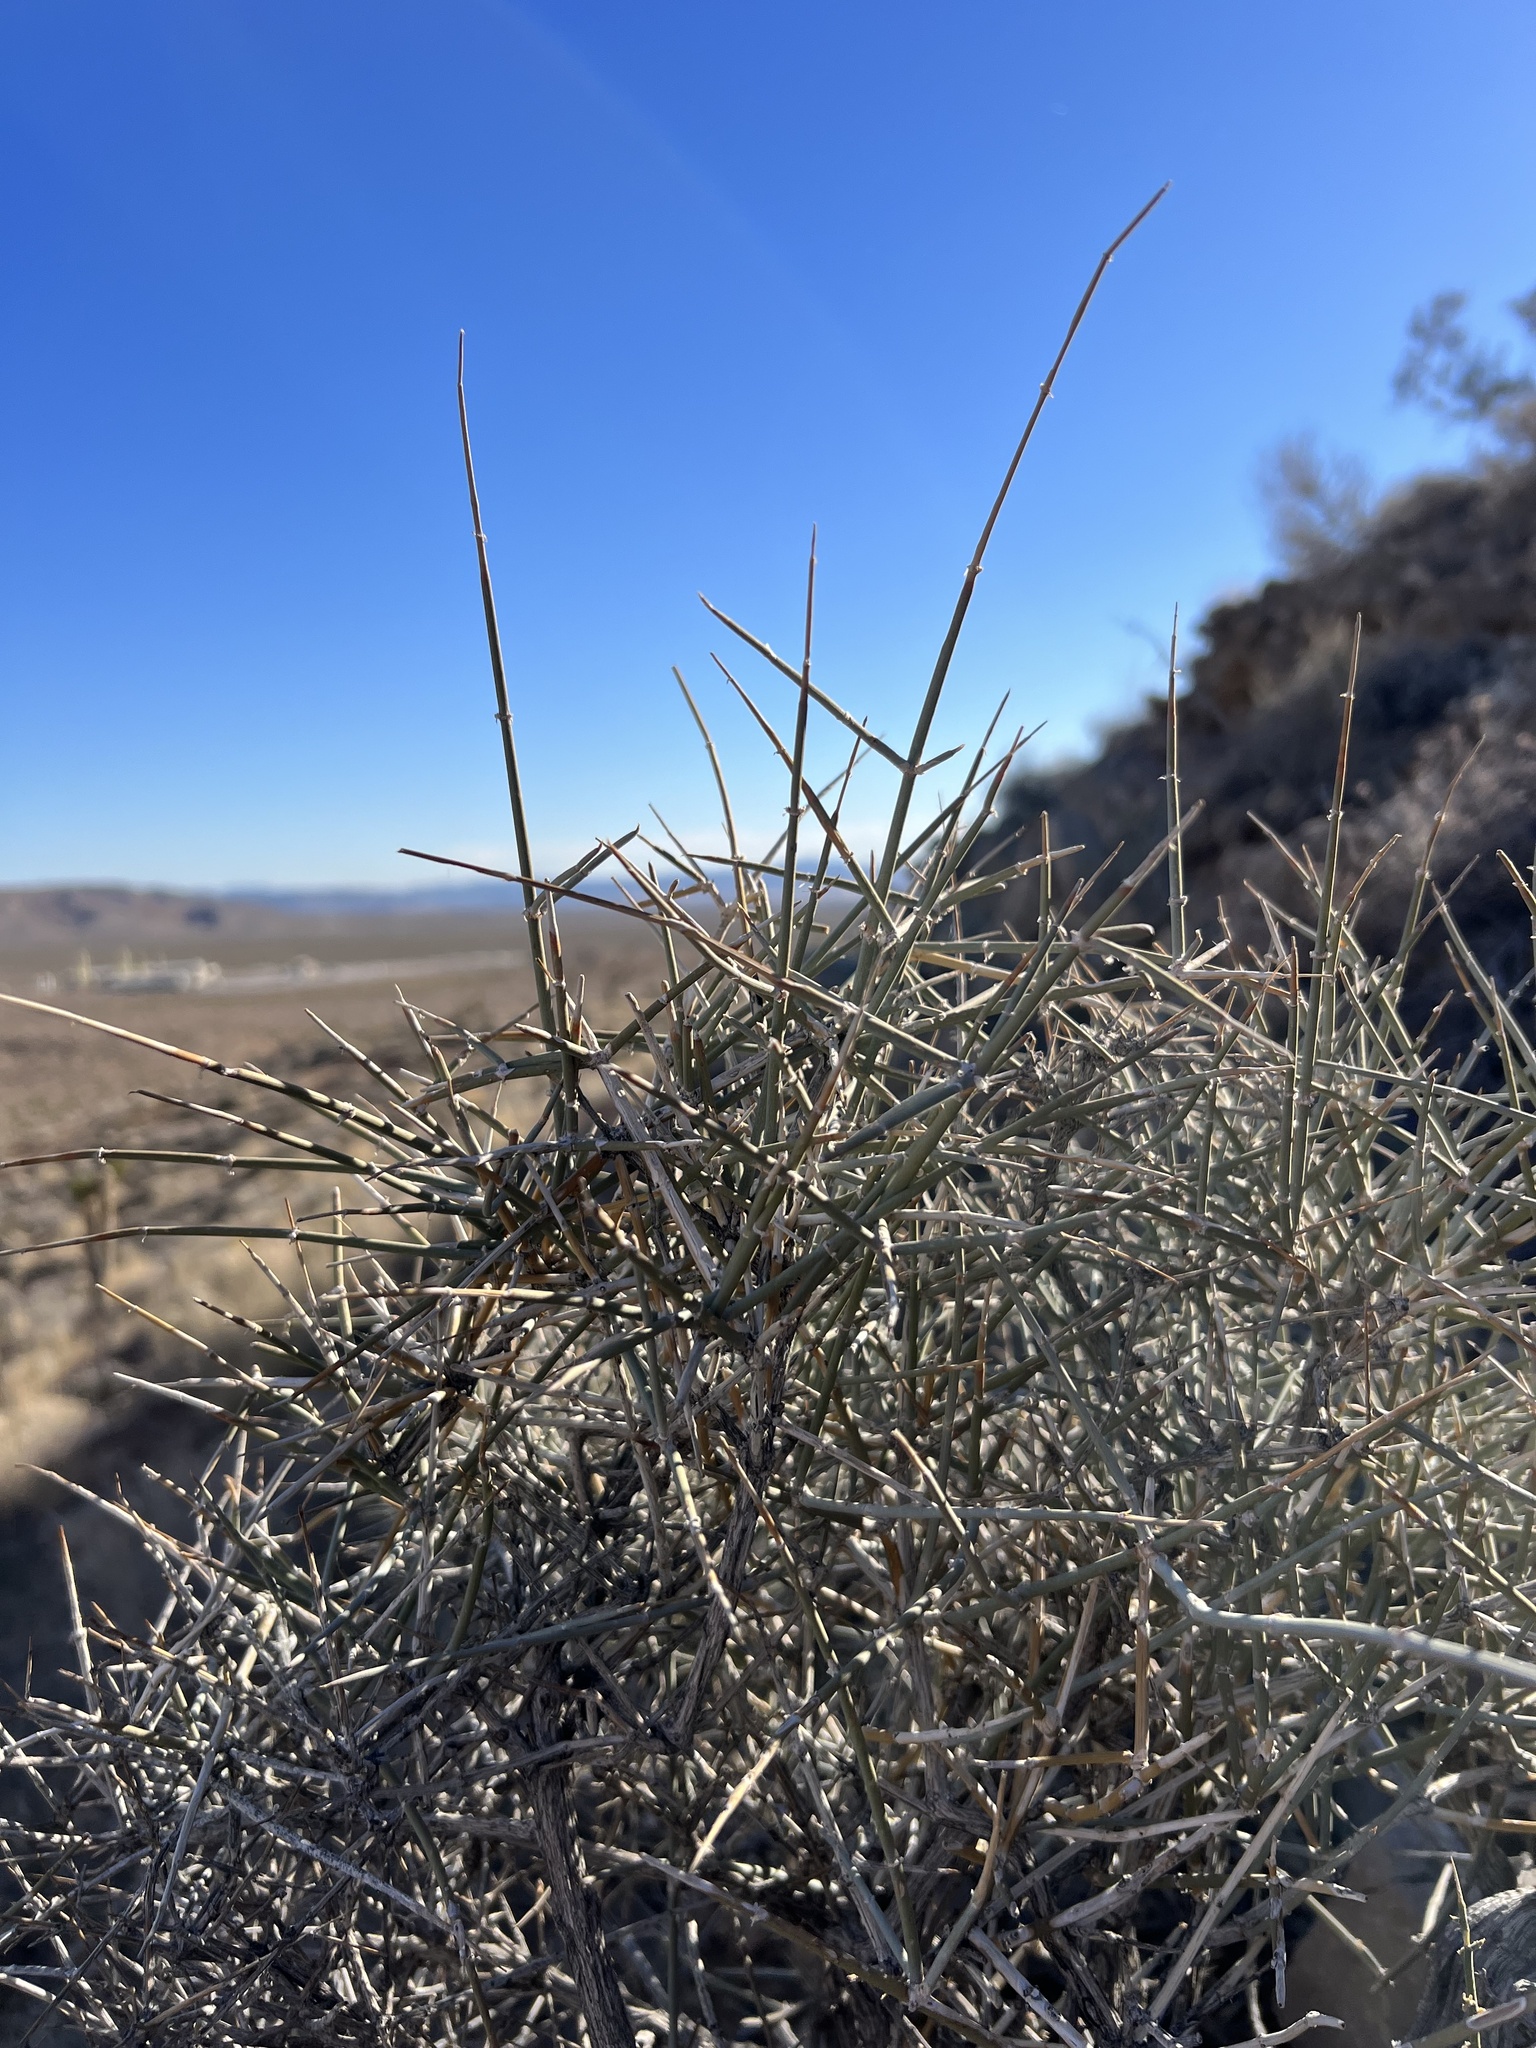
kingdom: Plantae
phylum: Tracheophyta
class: Gnetopsida
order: Ephedrales
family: Ephedraceae
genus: Ephedra
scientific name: Ephedra nevadensis
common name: Gray ephedra
